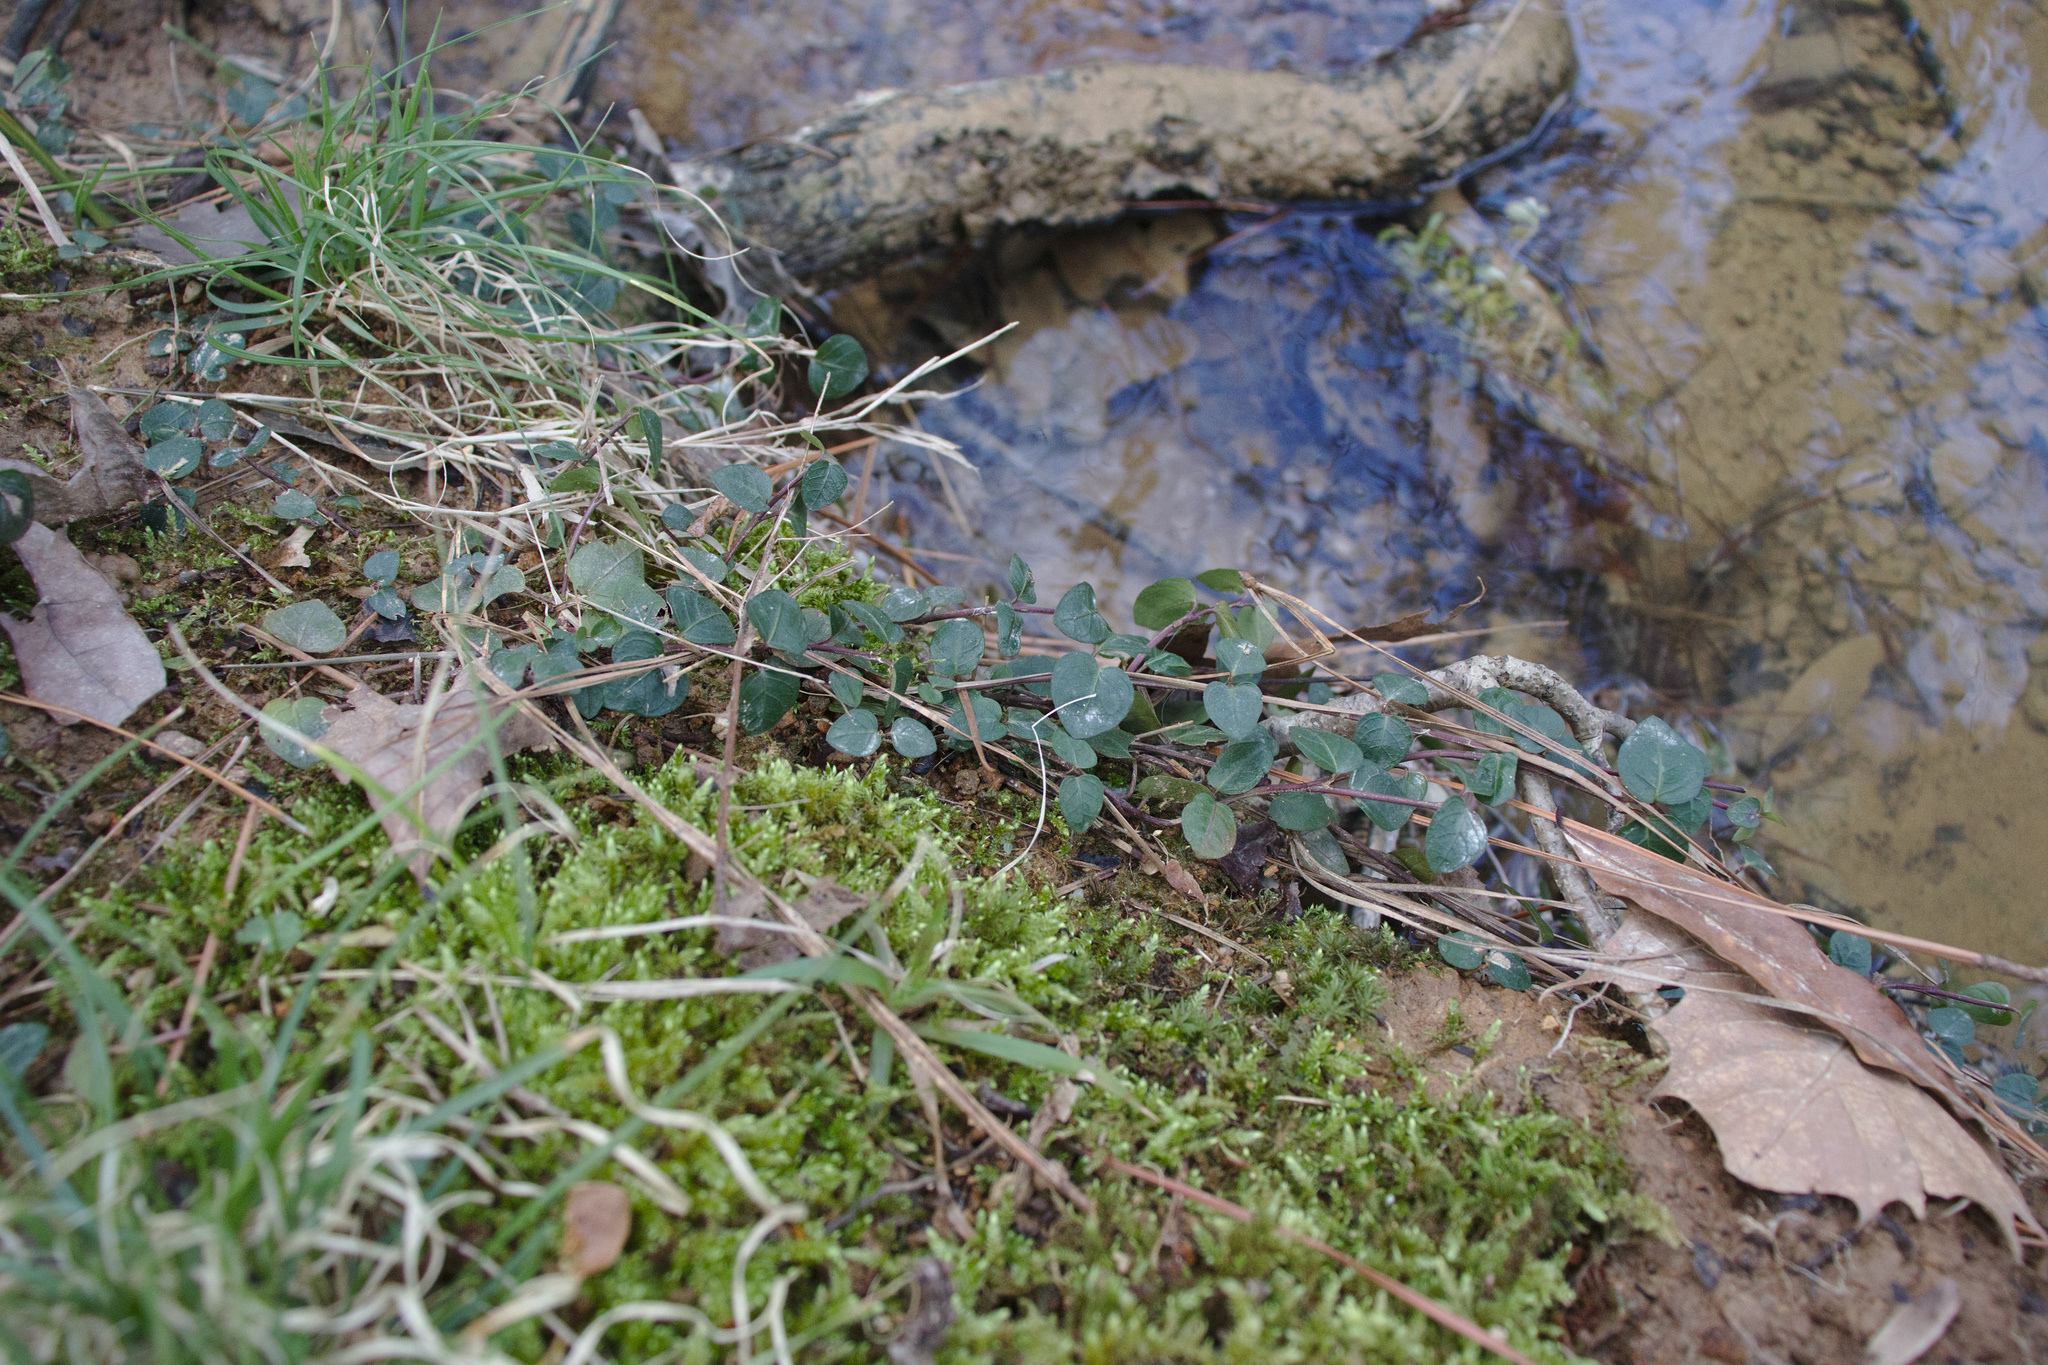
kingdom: Plantae
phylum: Tracheophyta
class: Magnoliopsida
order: Gentianales
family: Rubiaceae
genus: Mitchella
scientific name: Mitchella repens
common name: Partridge-berry
